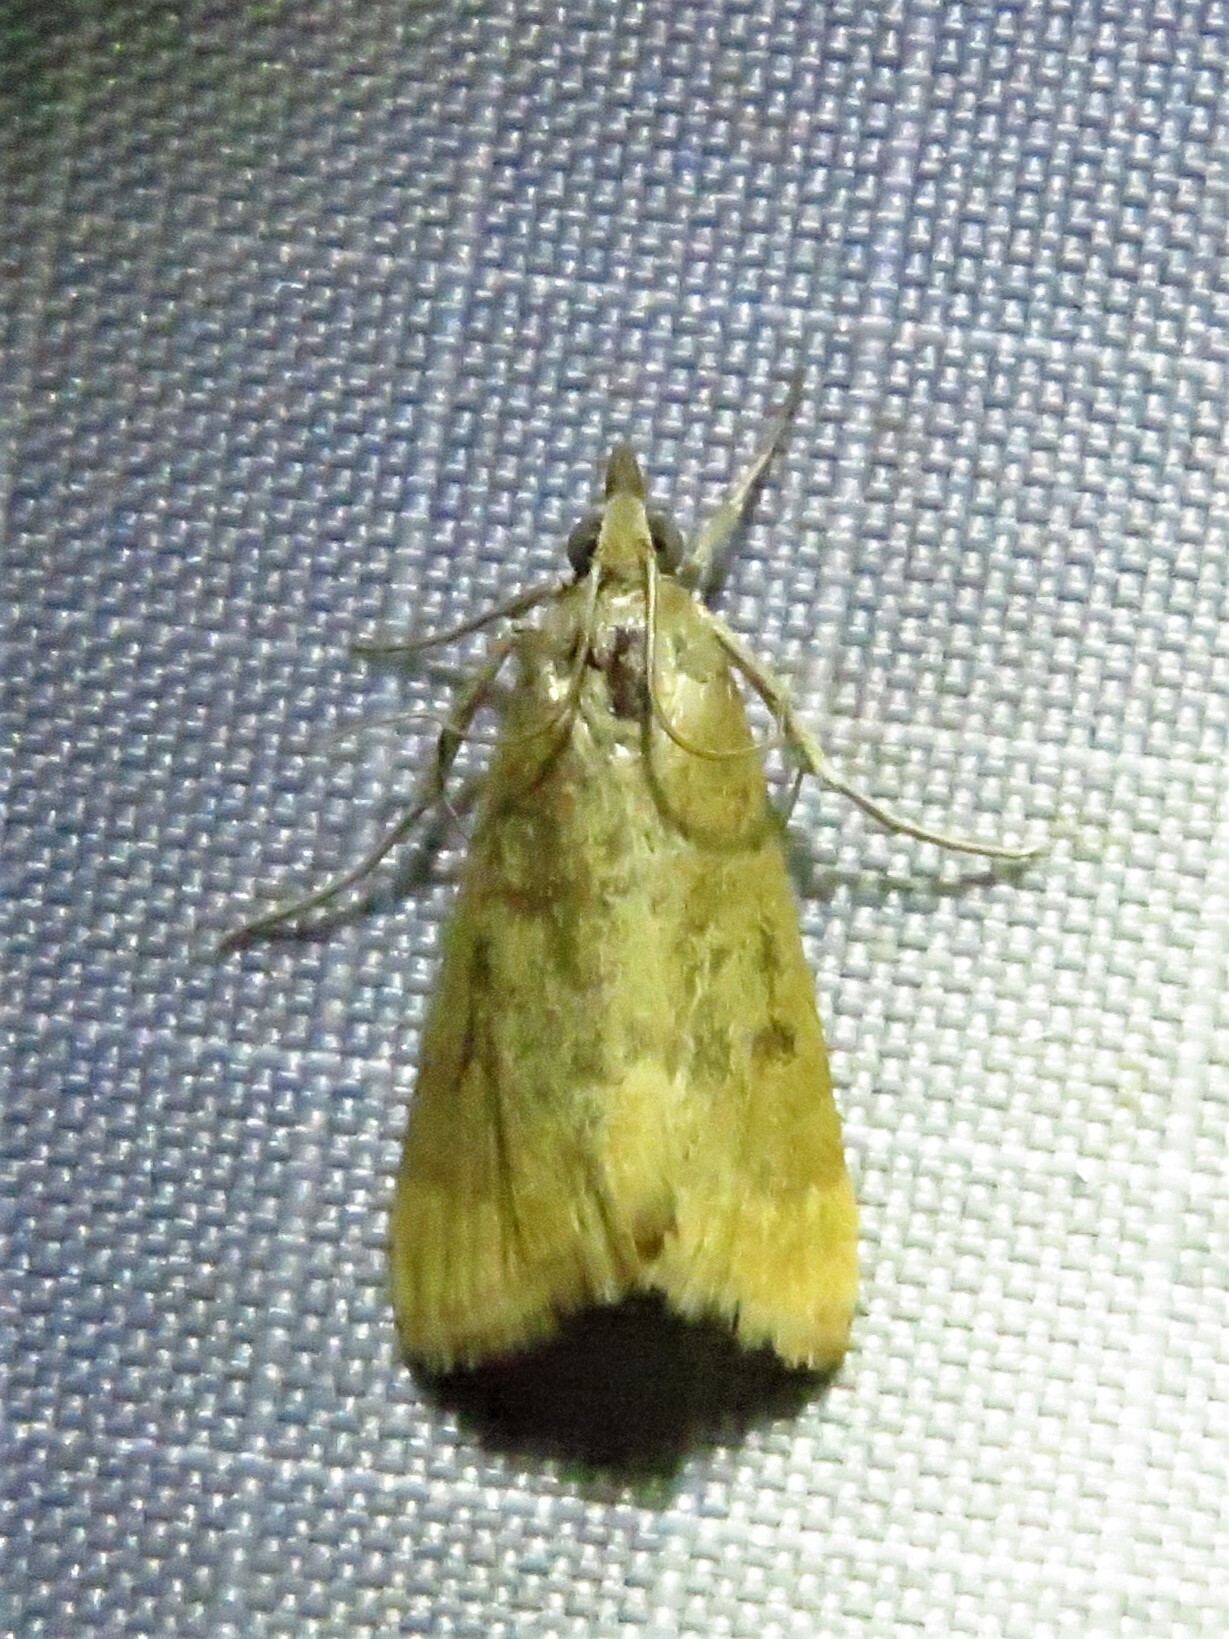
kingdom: Animalia
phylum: Arthropoda
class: Insecta
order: Lepidoptera
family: Crambidae
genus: Achyra
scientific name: Achyra rantalis
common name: Garden webworm
